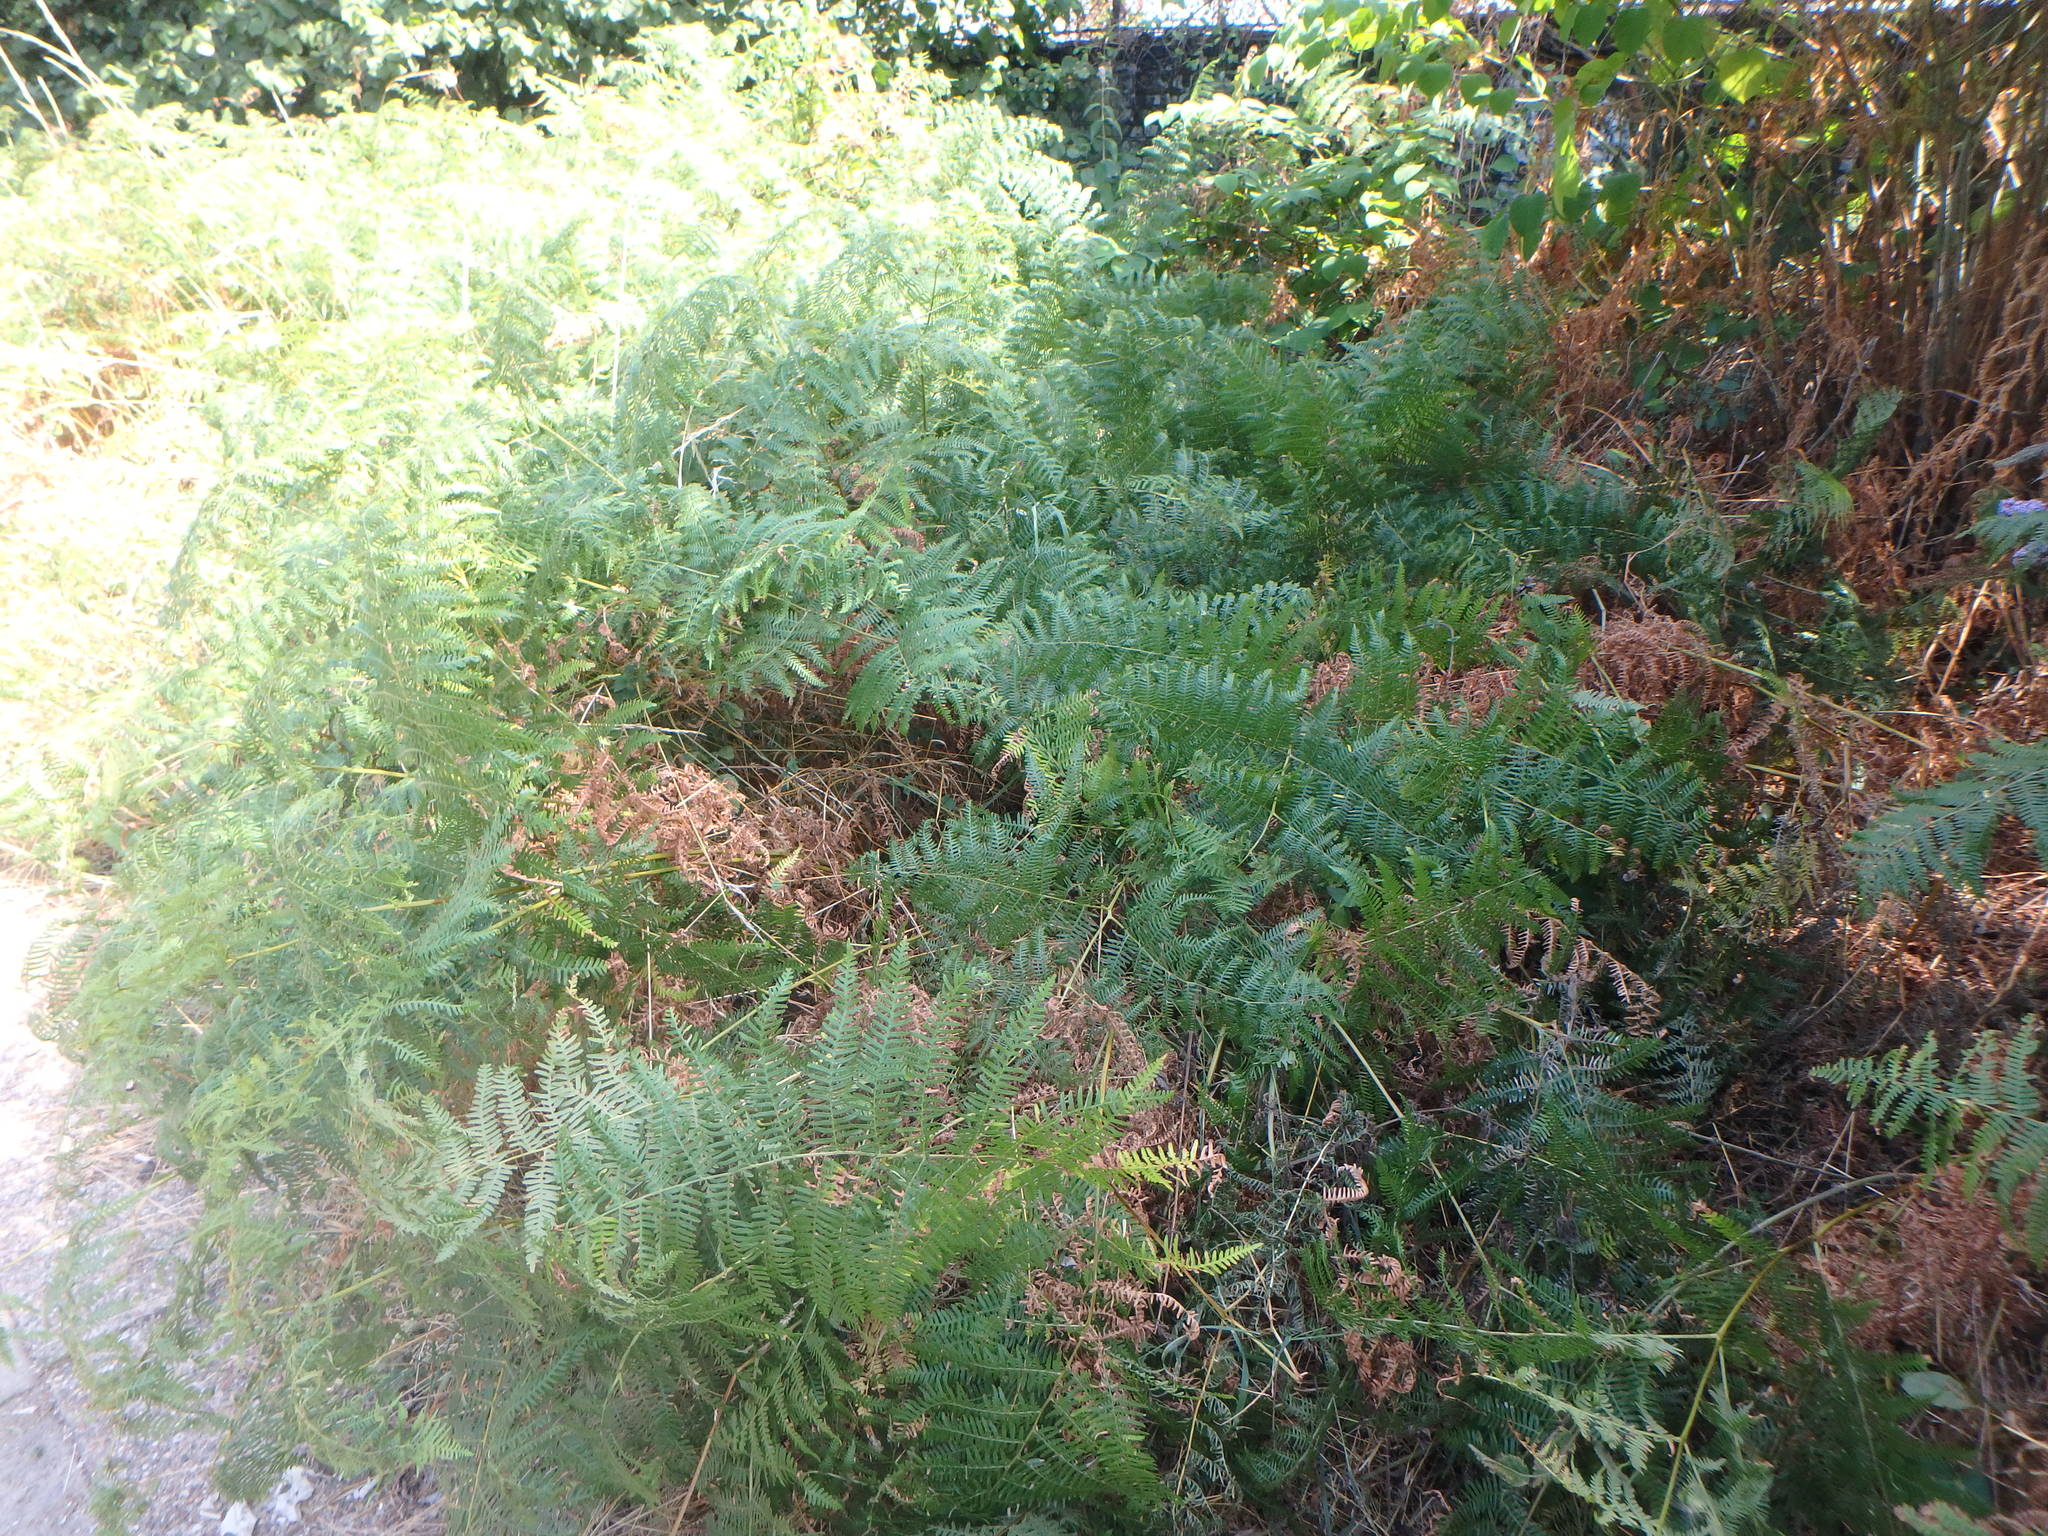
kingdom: Plantae
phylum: Tracheophyta
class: Polypodiopsida
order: Polypodiales
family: Dennstaedtiaceae
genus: Pteridium
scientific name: Pteridium aquilinum
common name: Bracken
